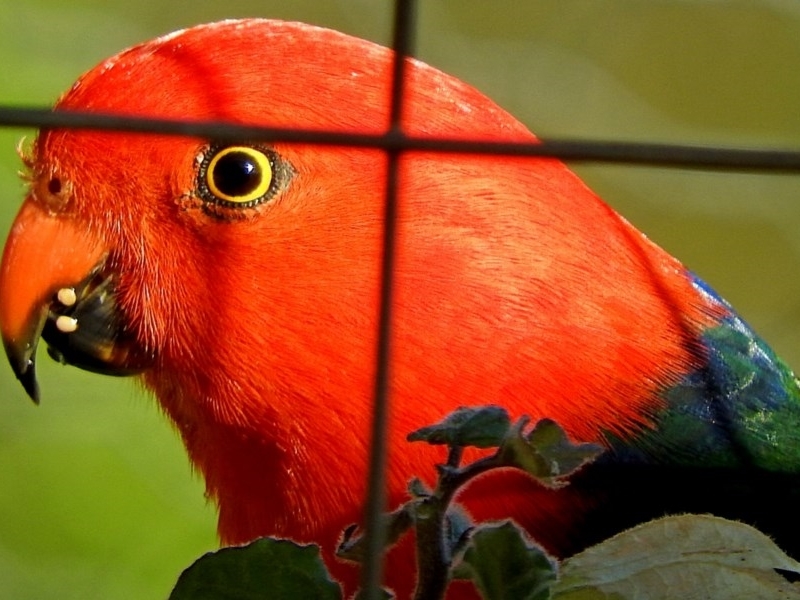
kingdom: Animalia
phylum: Chordata
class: Aves
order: Psittaciformes
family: Psittacidae
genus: Alisterus
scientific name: Alisterus scapularis
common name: Australian king parrot
